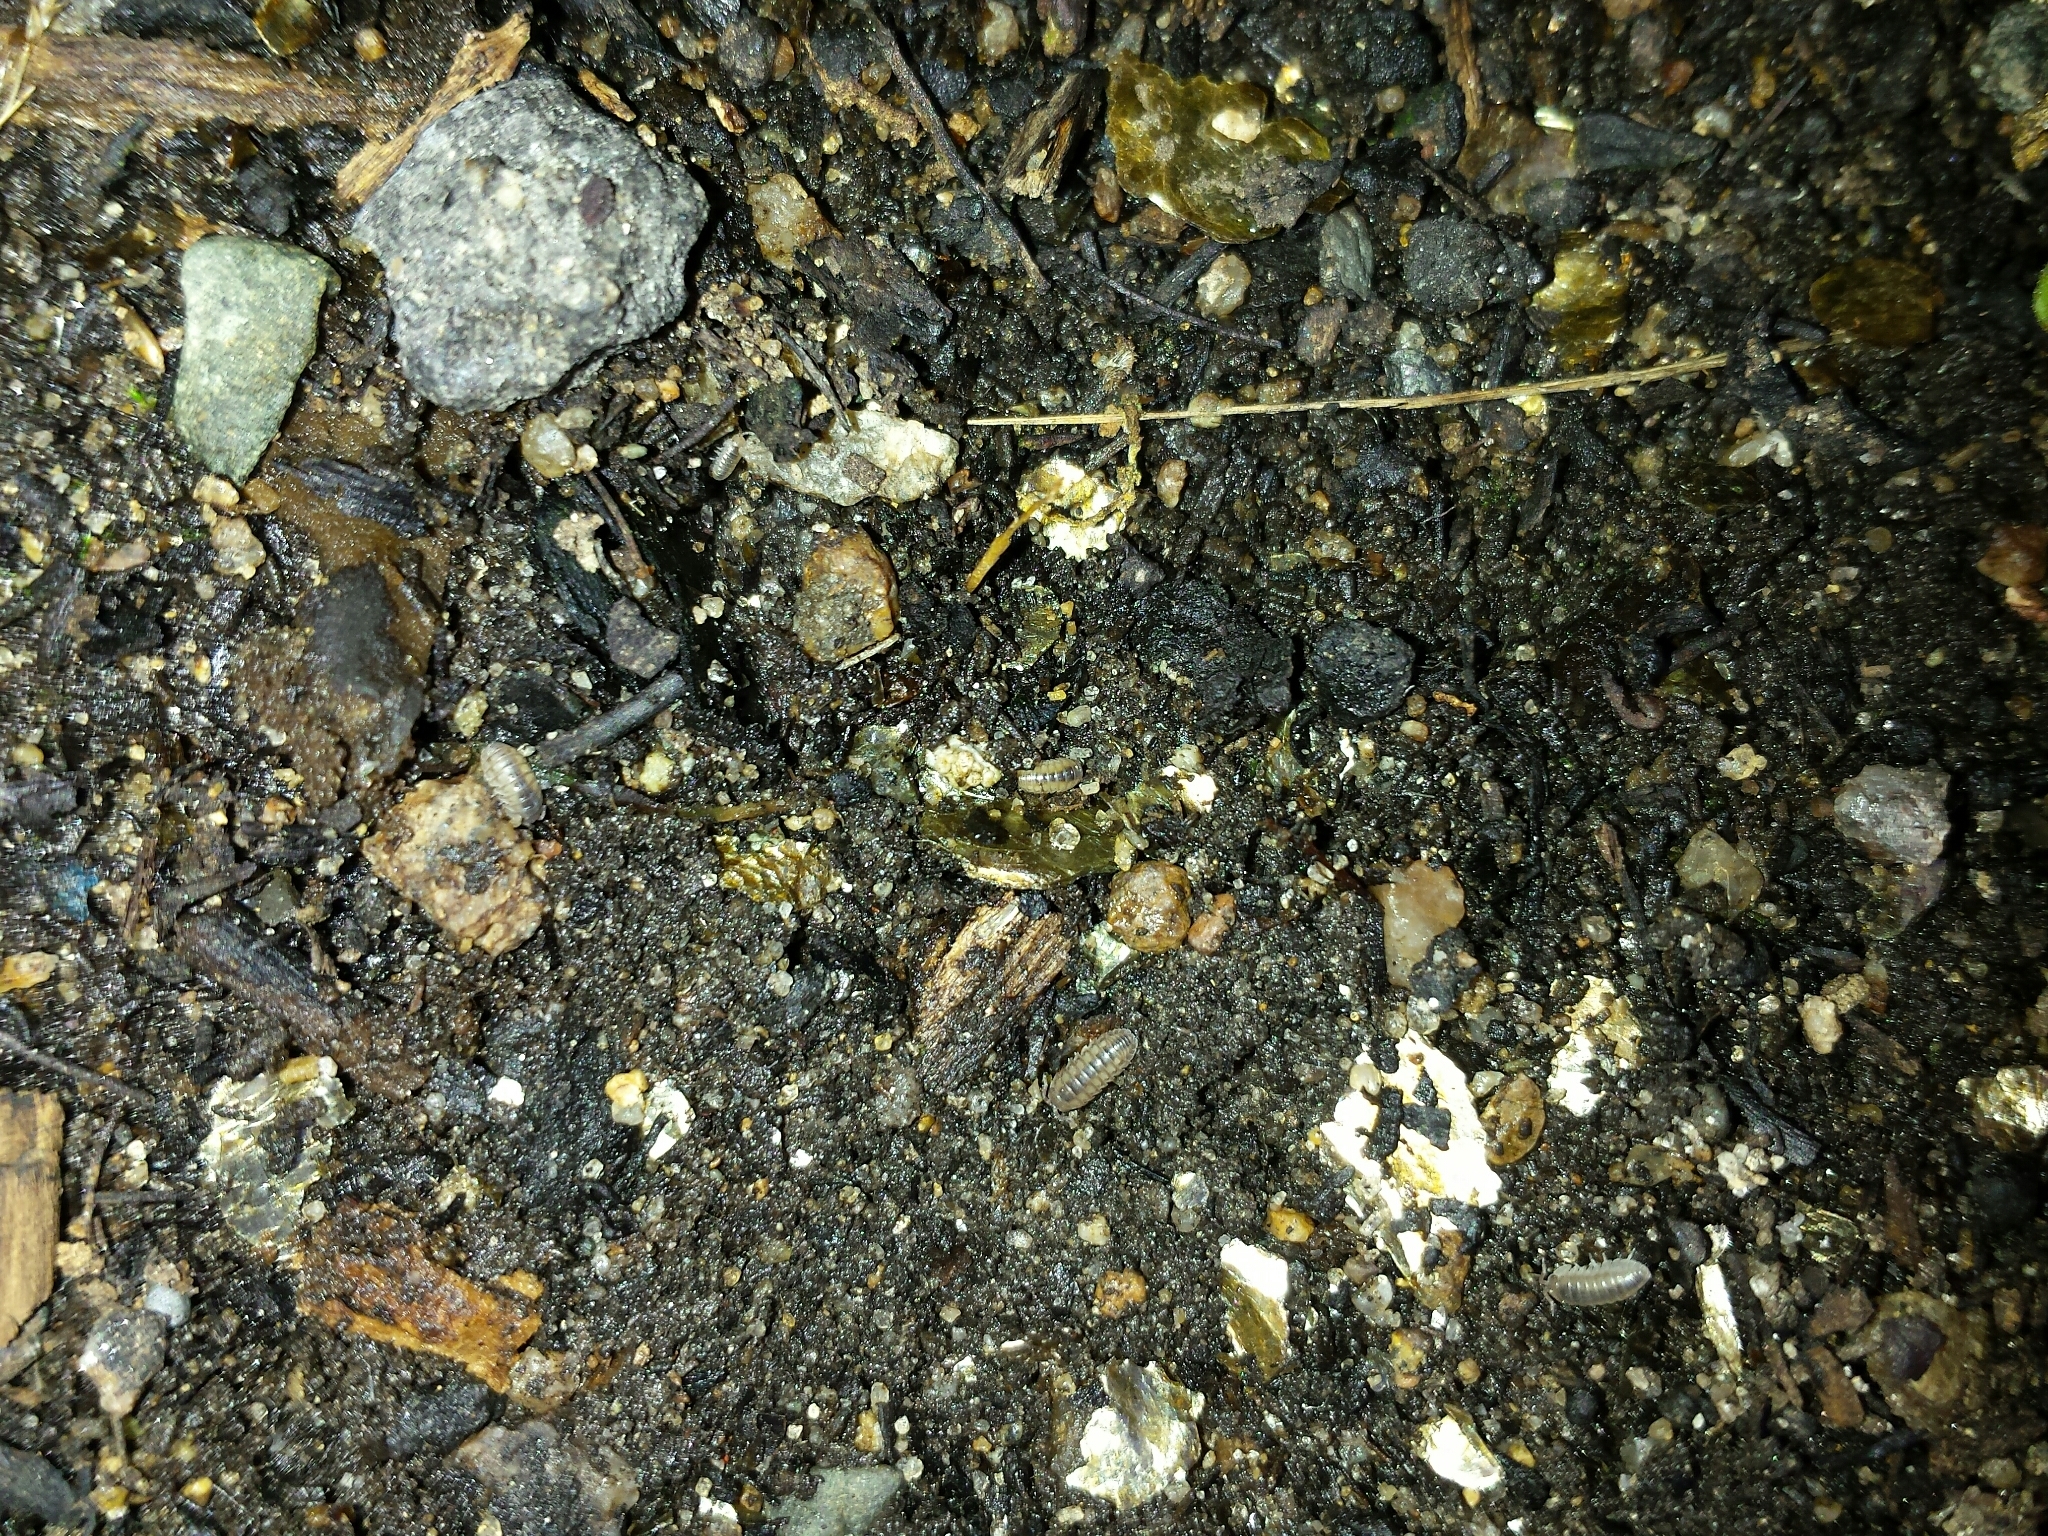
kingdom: Animalia
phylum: Arthropoda
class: Malacostraca
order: Isopoda
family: Armadillidiidae
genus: Armadillidium
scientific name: Armadillidium nasatum
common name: Isopod
